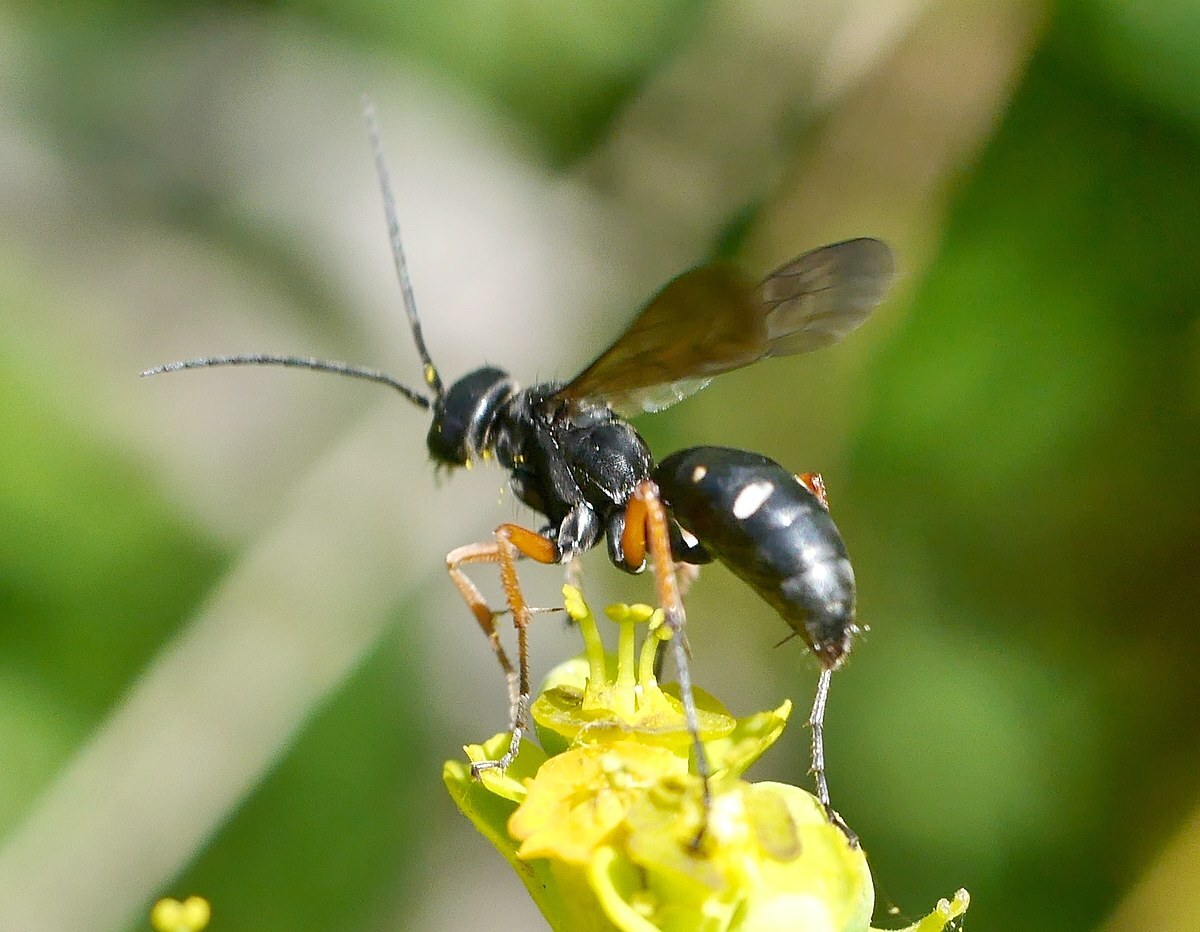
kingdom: Animalia
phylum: Arthropoda
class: Insecta
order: Hymenoptera
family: Pompilidae
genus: Cryptocheilus
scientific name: Cryptocheilus guttulatus
